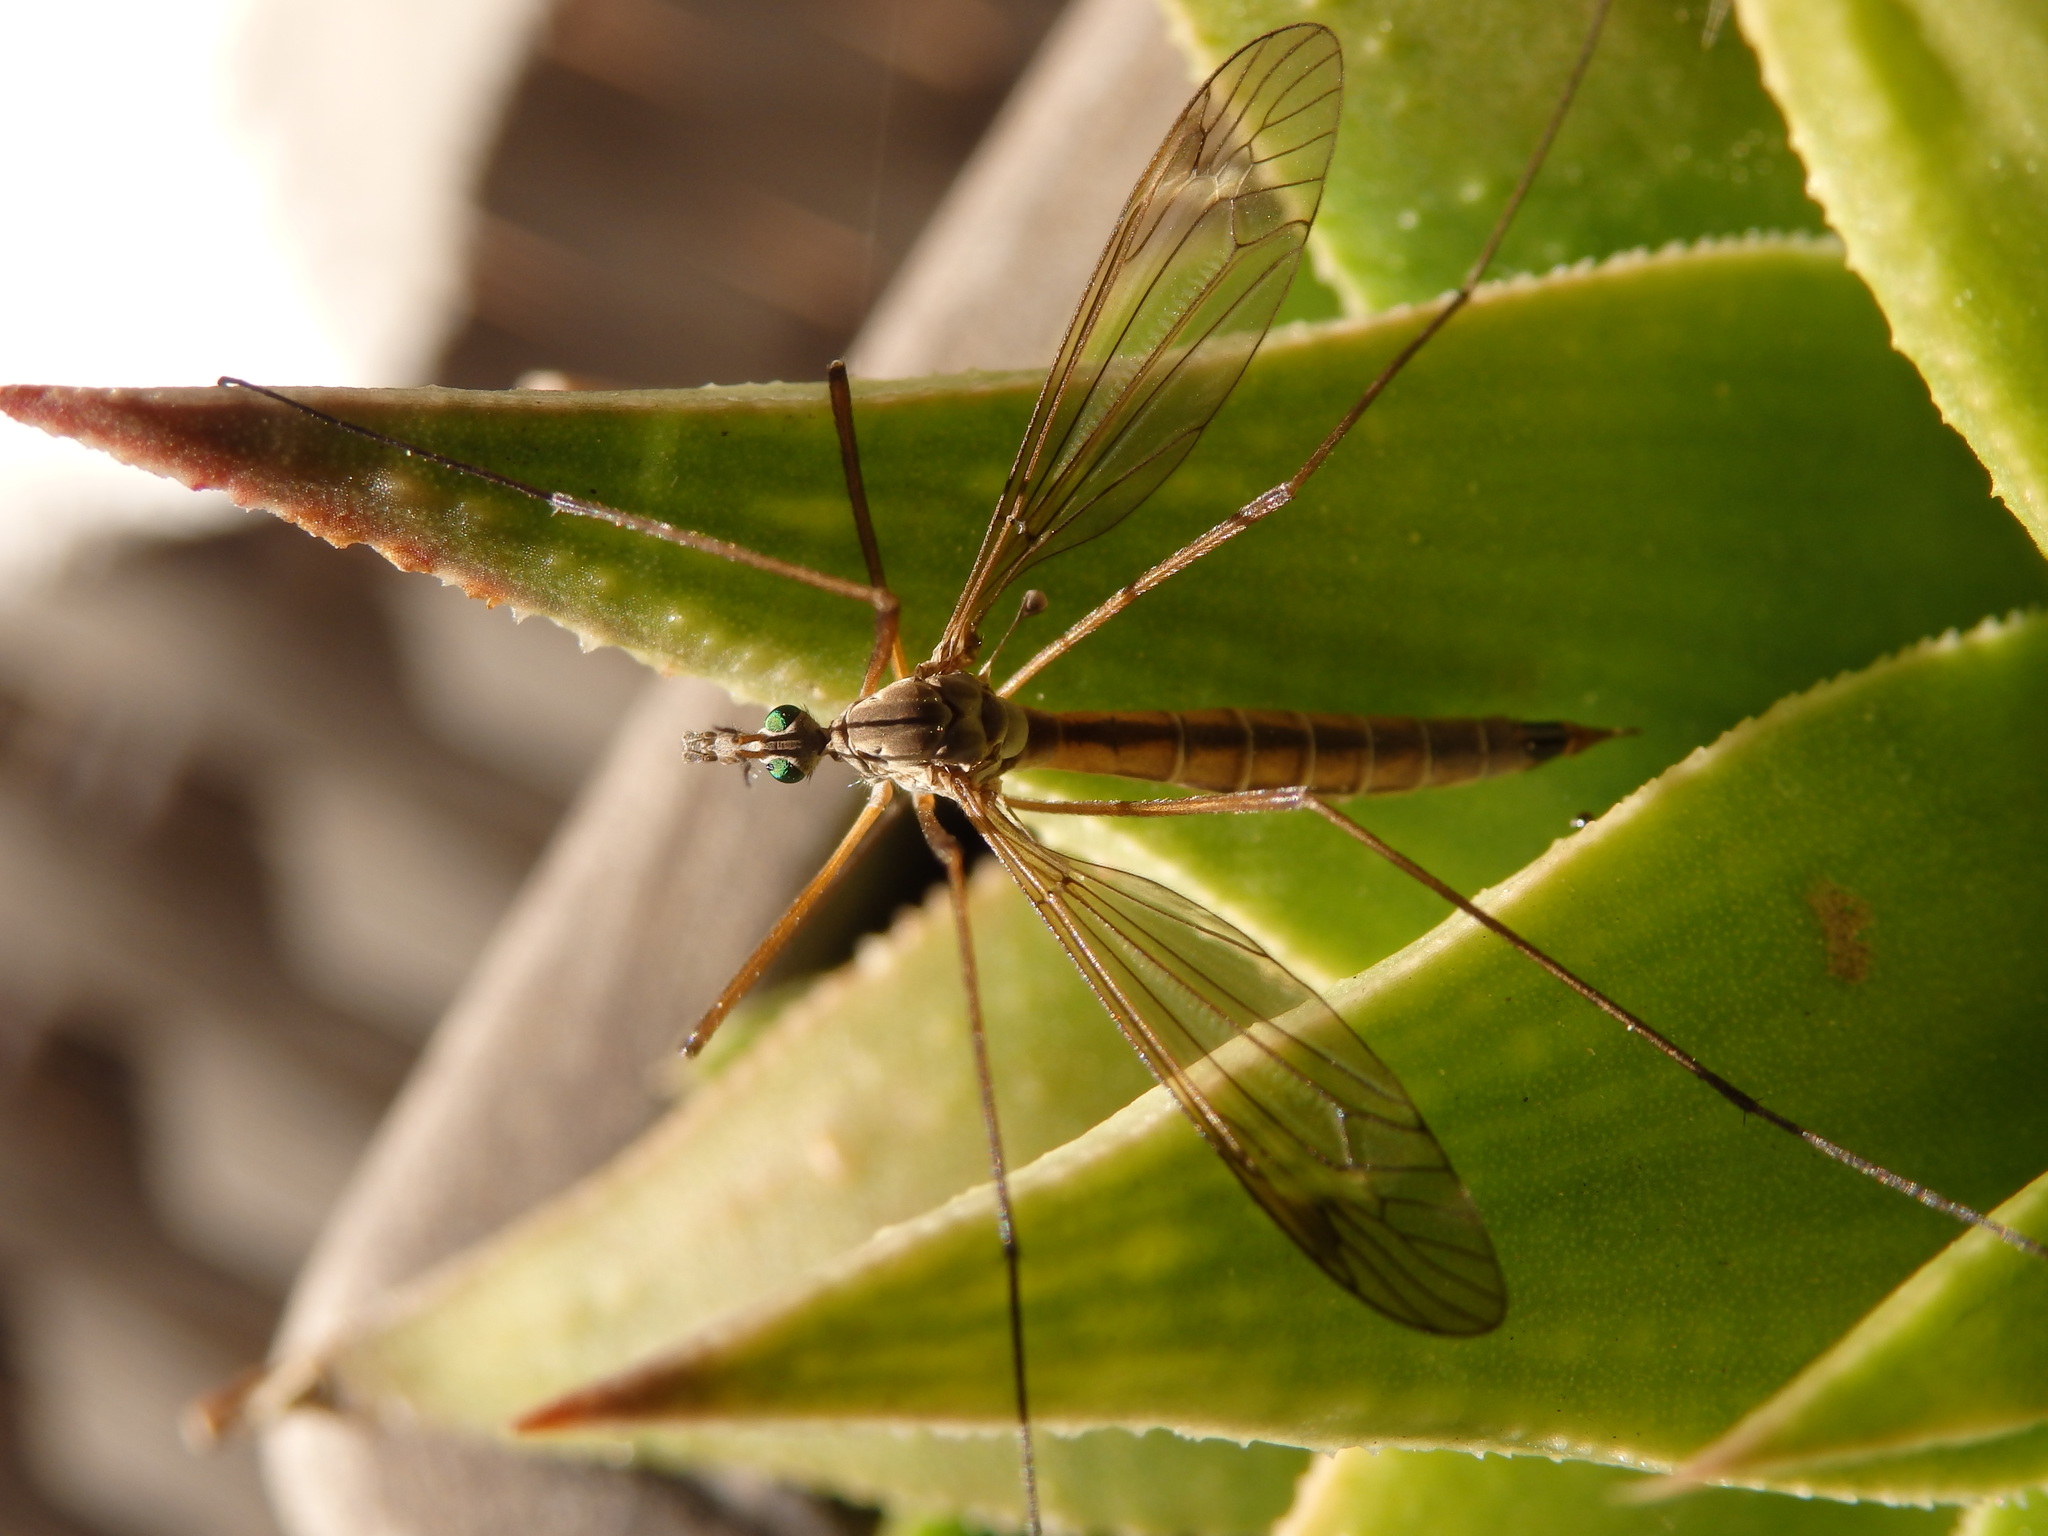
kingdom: Animalia
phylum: Arthropoda
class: Insecta
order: Diptera
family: Tipulidae
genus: Tipula
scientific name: Tipula paludosa
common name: European cranefly
